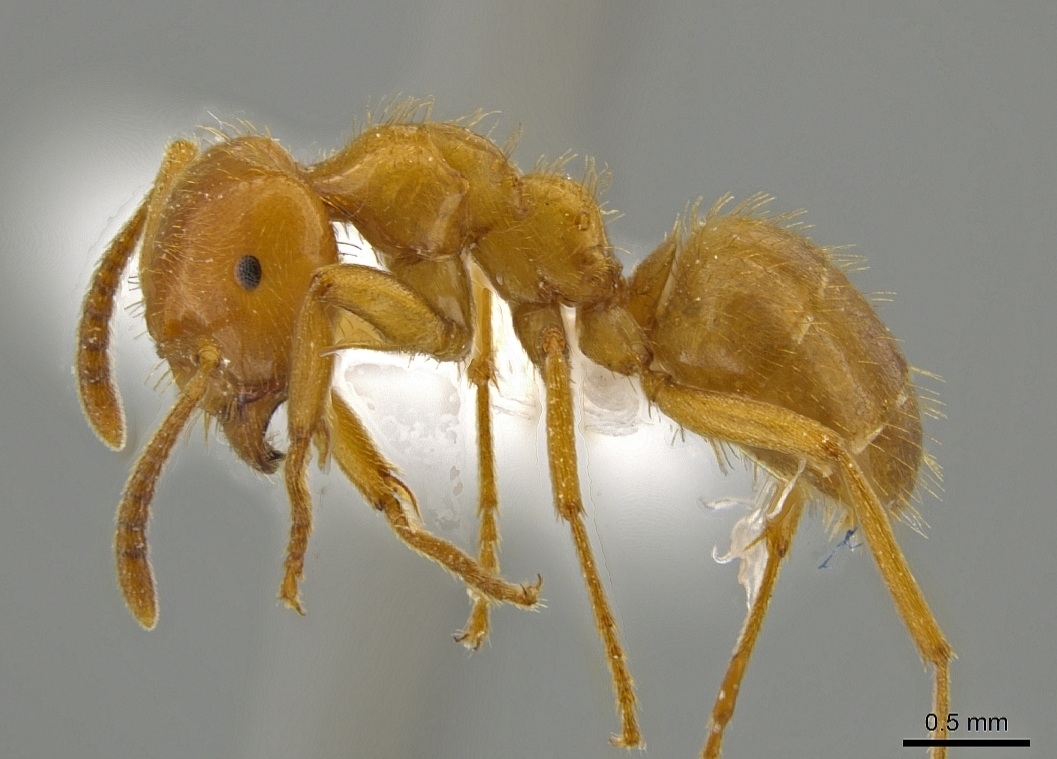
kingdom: Animalia
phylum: Arthropoda
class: Insecta
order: Hymenoptera
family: Formicidae
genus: Lasius
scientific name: Lasius
